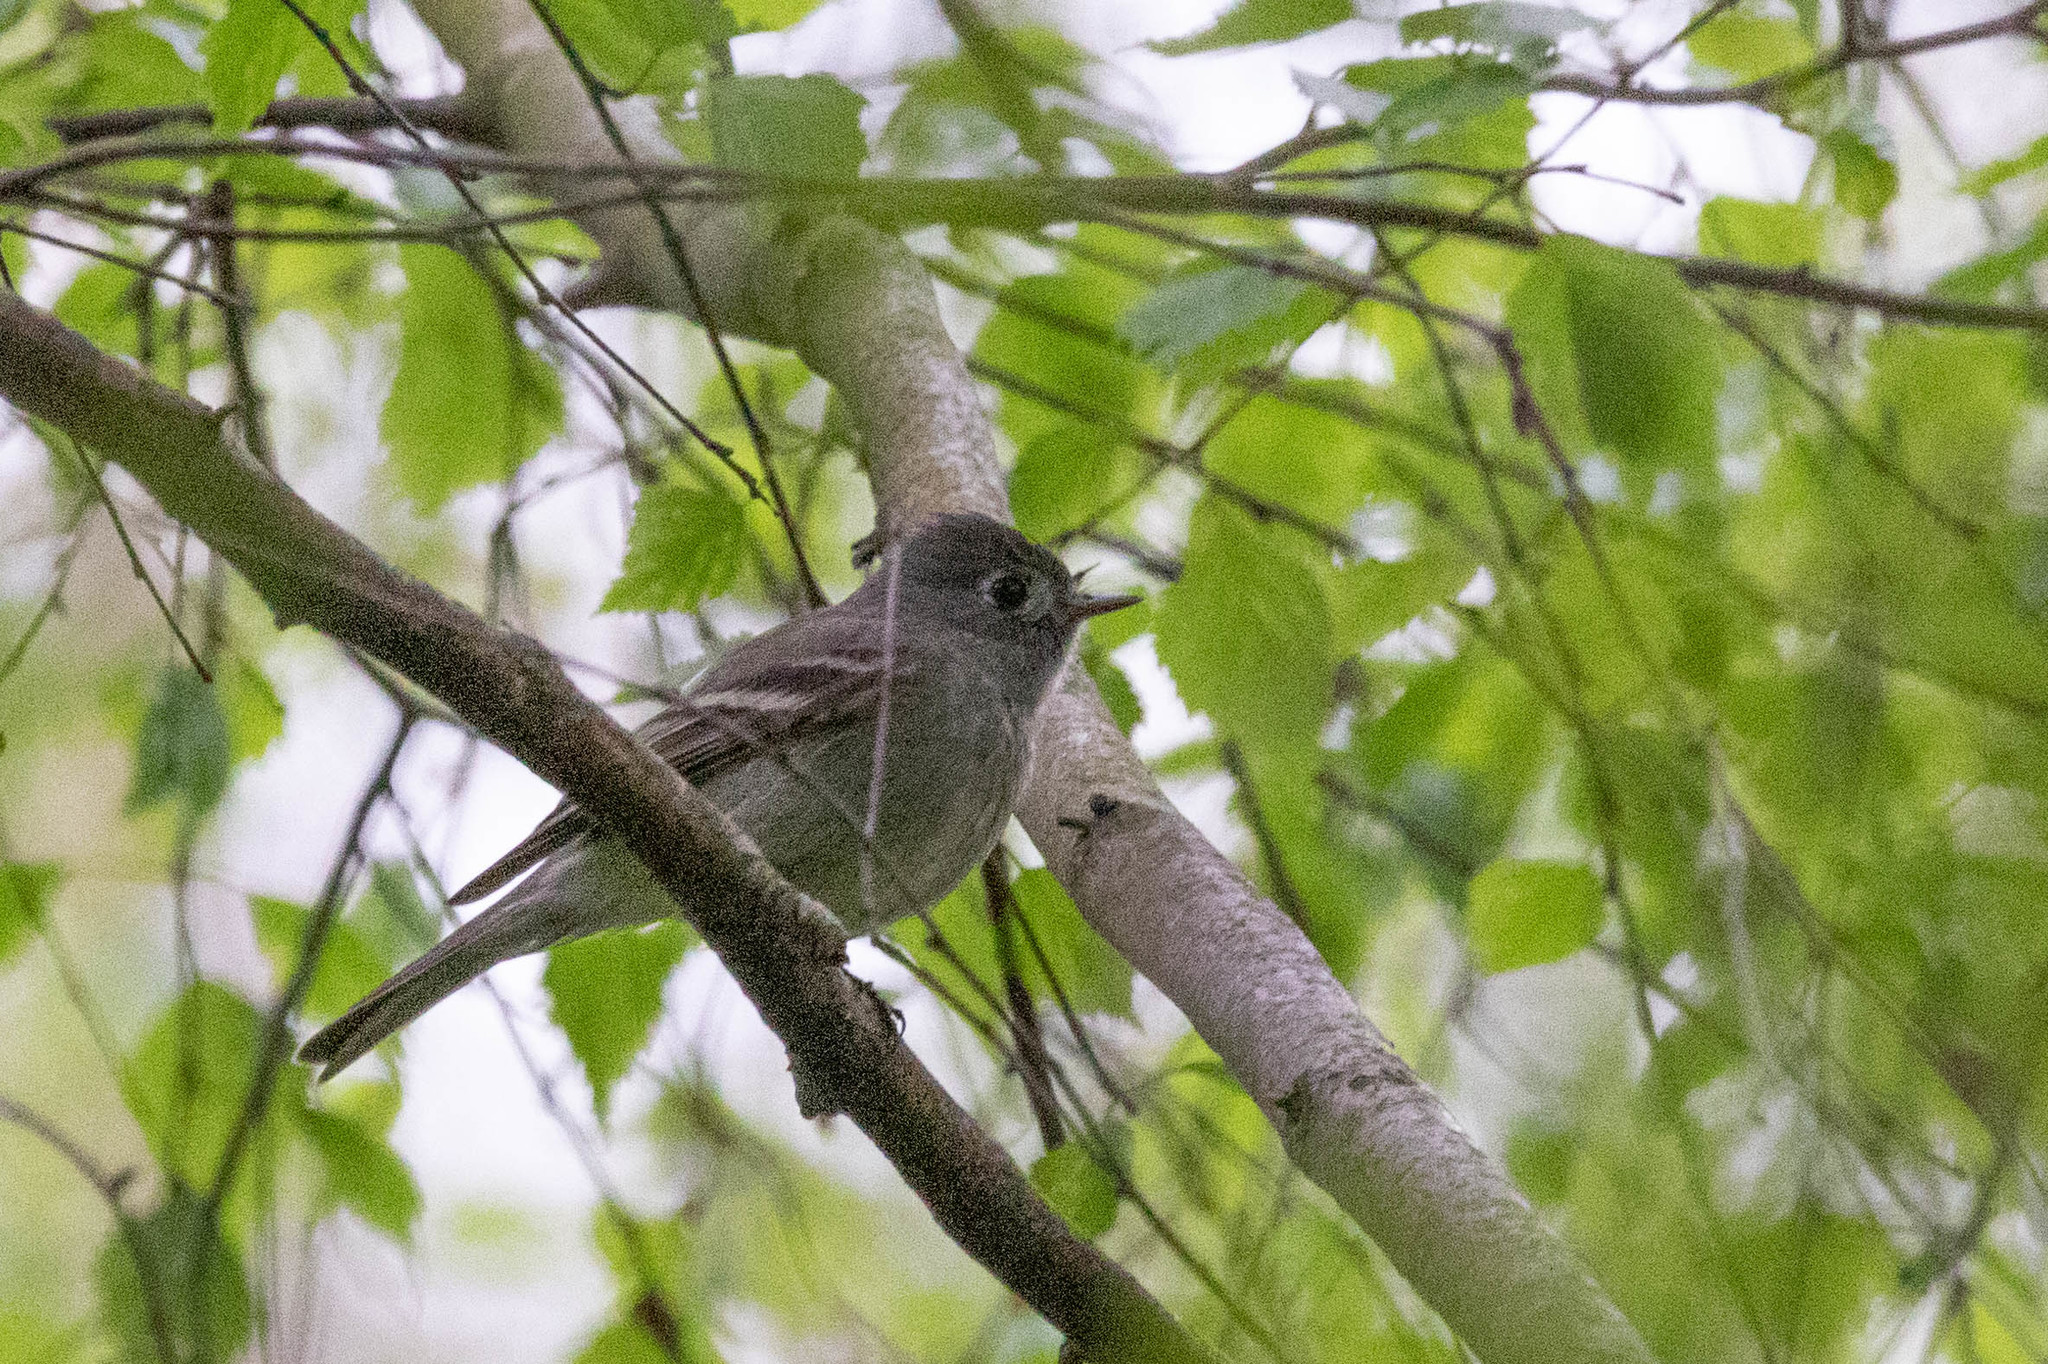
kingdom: Animalia
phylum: Chordata
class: Aves
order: Passeriformes
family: Tyrannidae
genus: Empidonax
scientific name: Empidonax hammondii
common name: Hammond's flycatcher
